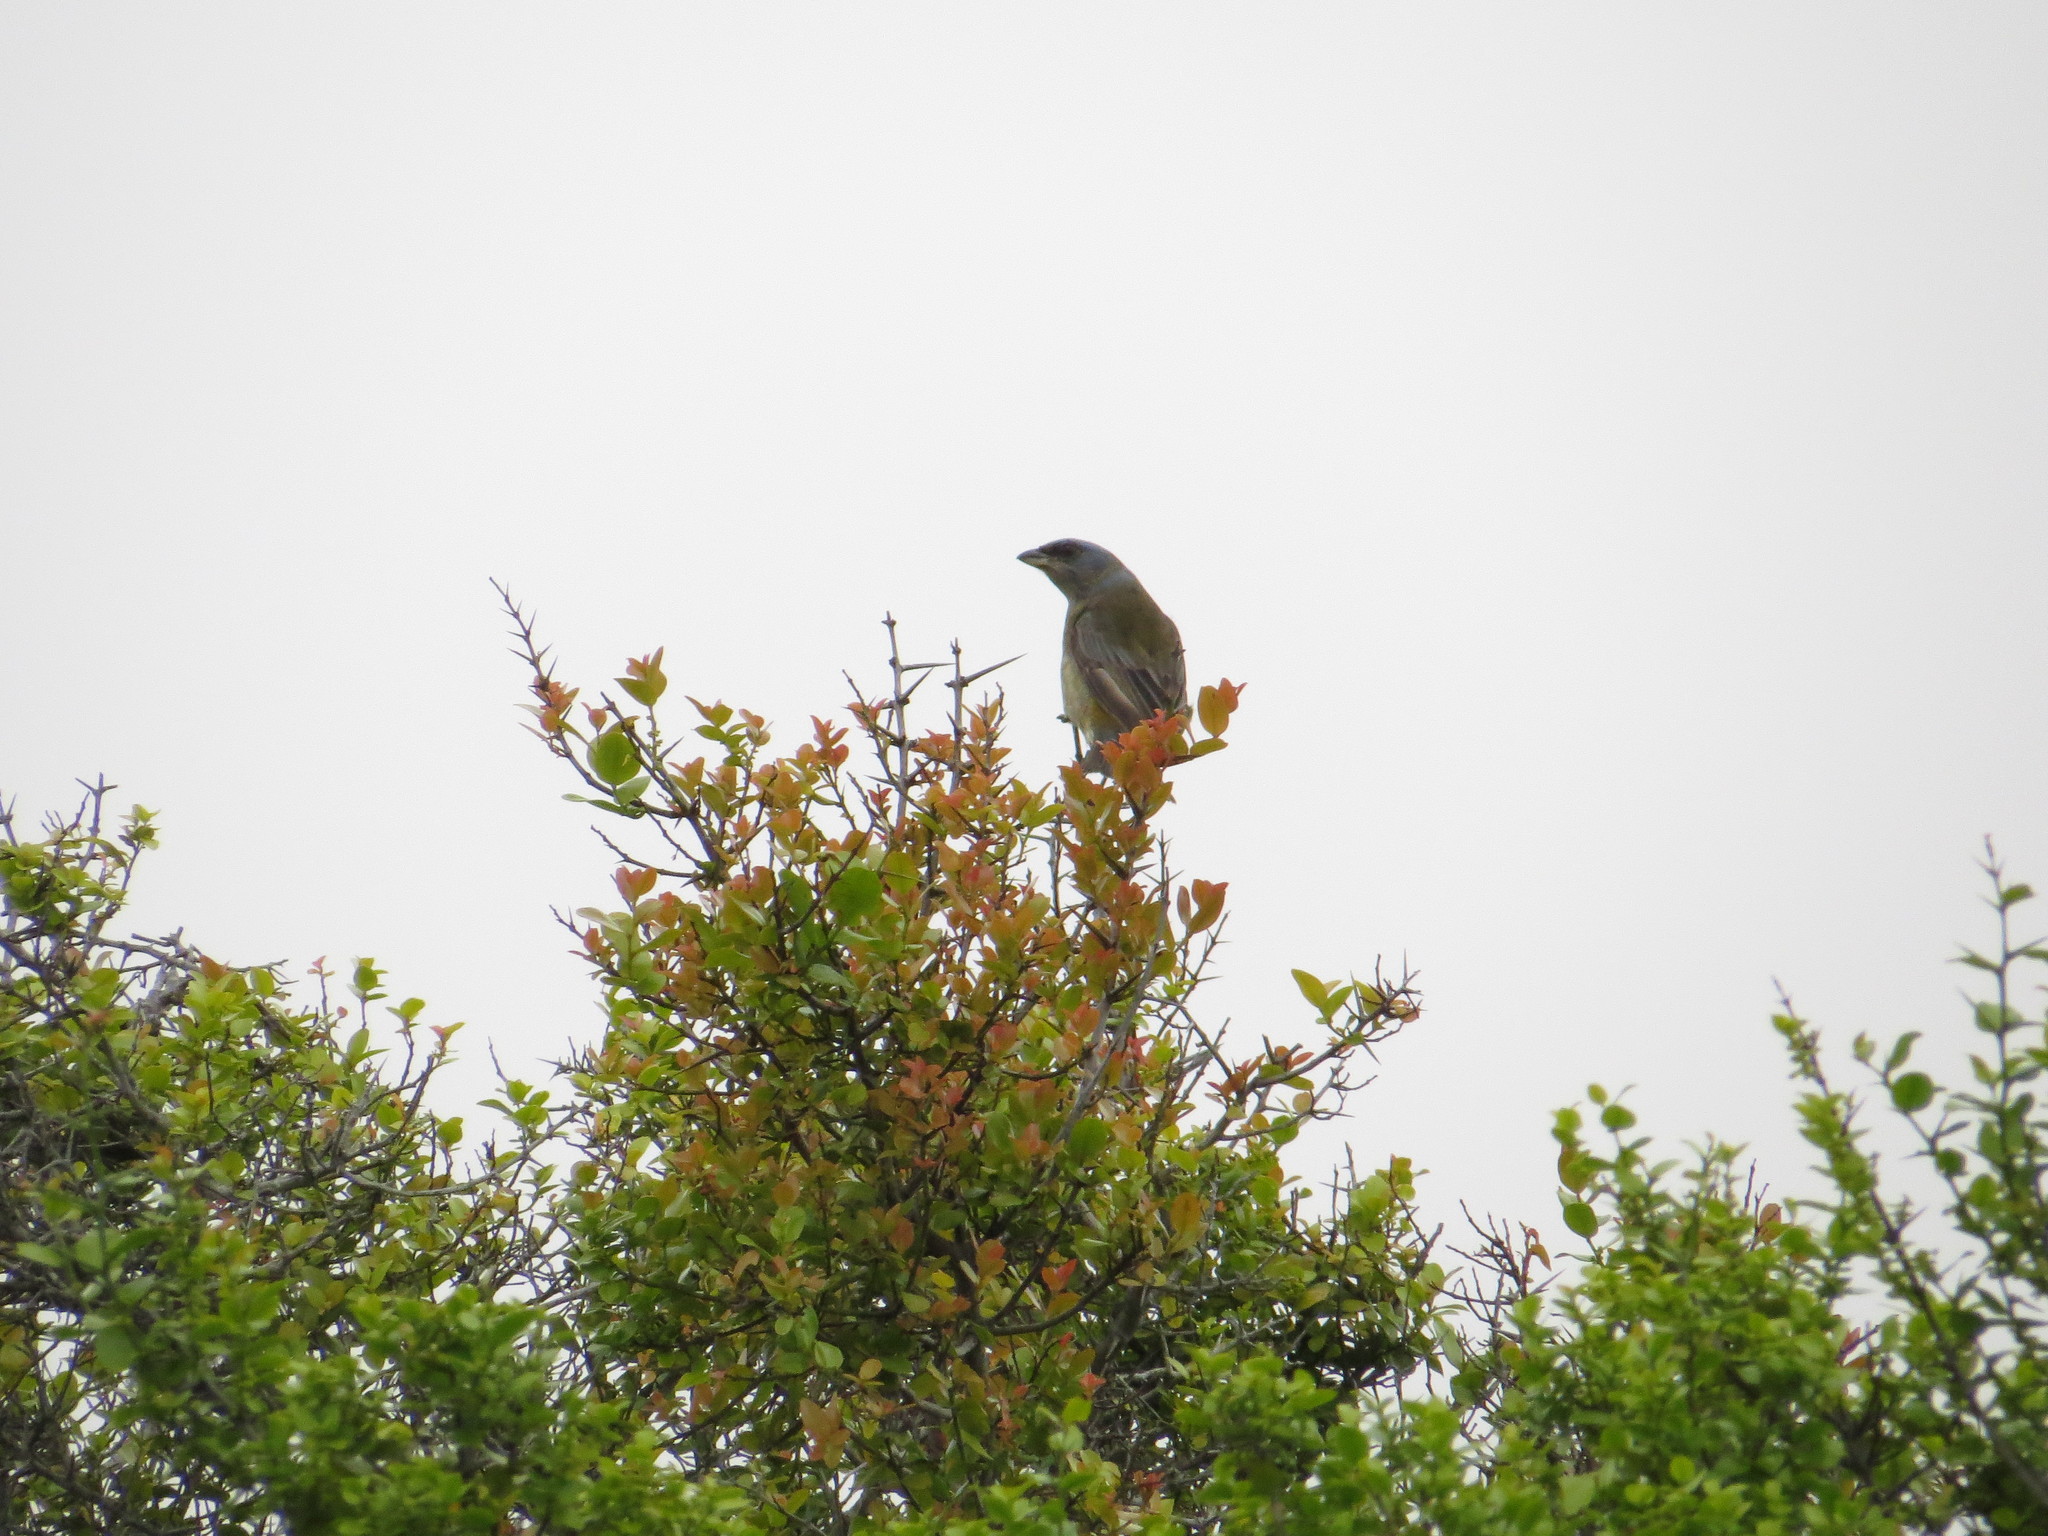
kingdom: Animalia
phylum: Chordata
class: Aves
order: Passeriformes
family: Thraupidae
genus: Rauenia
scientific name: Rauenia bonariensis
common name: Blue-and-yellow tanager
